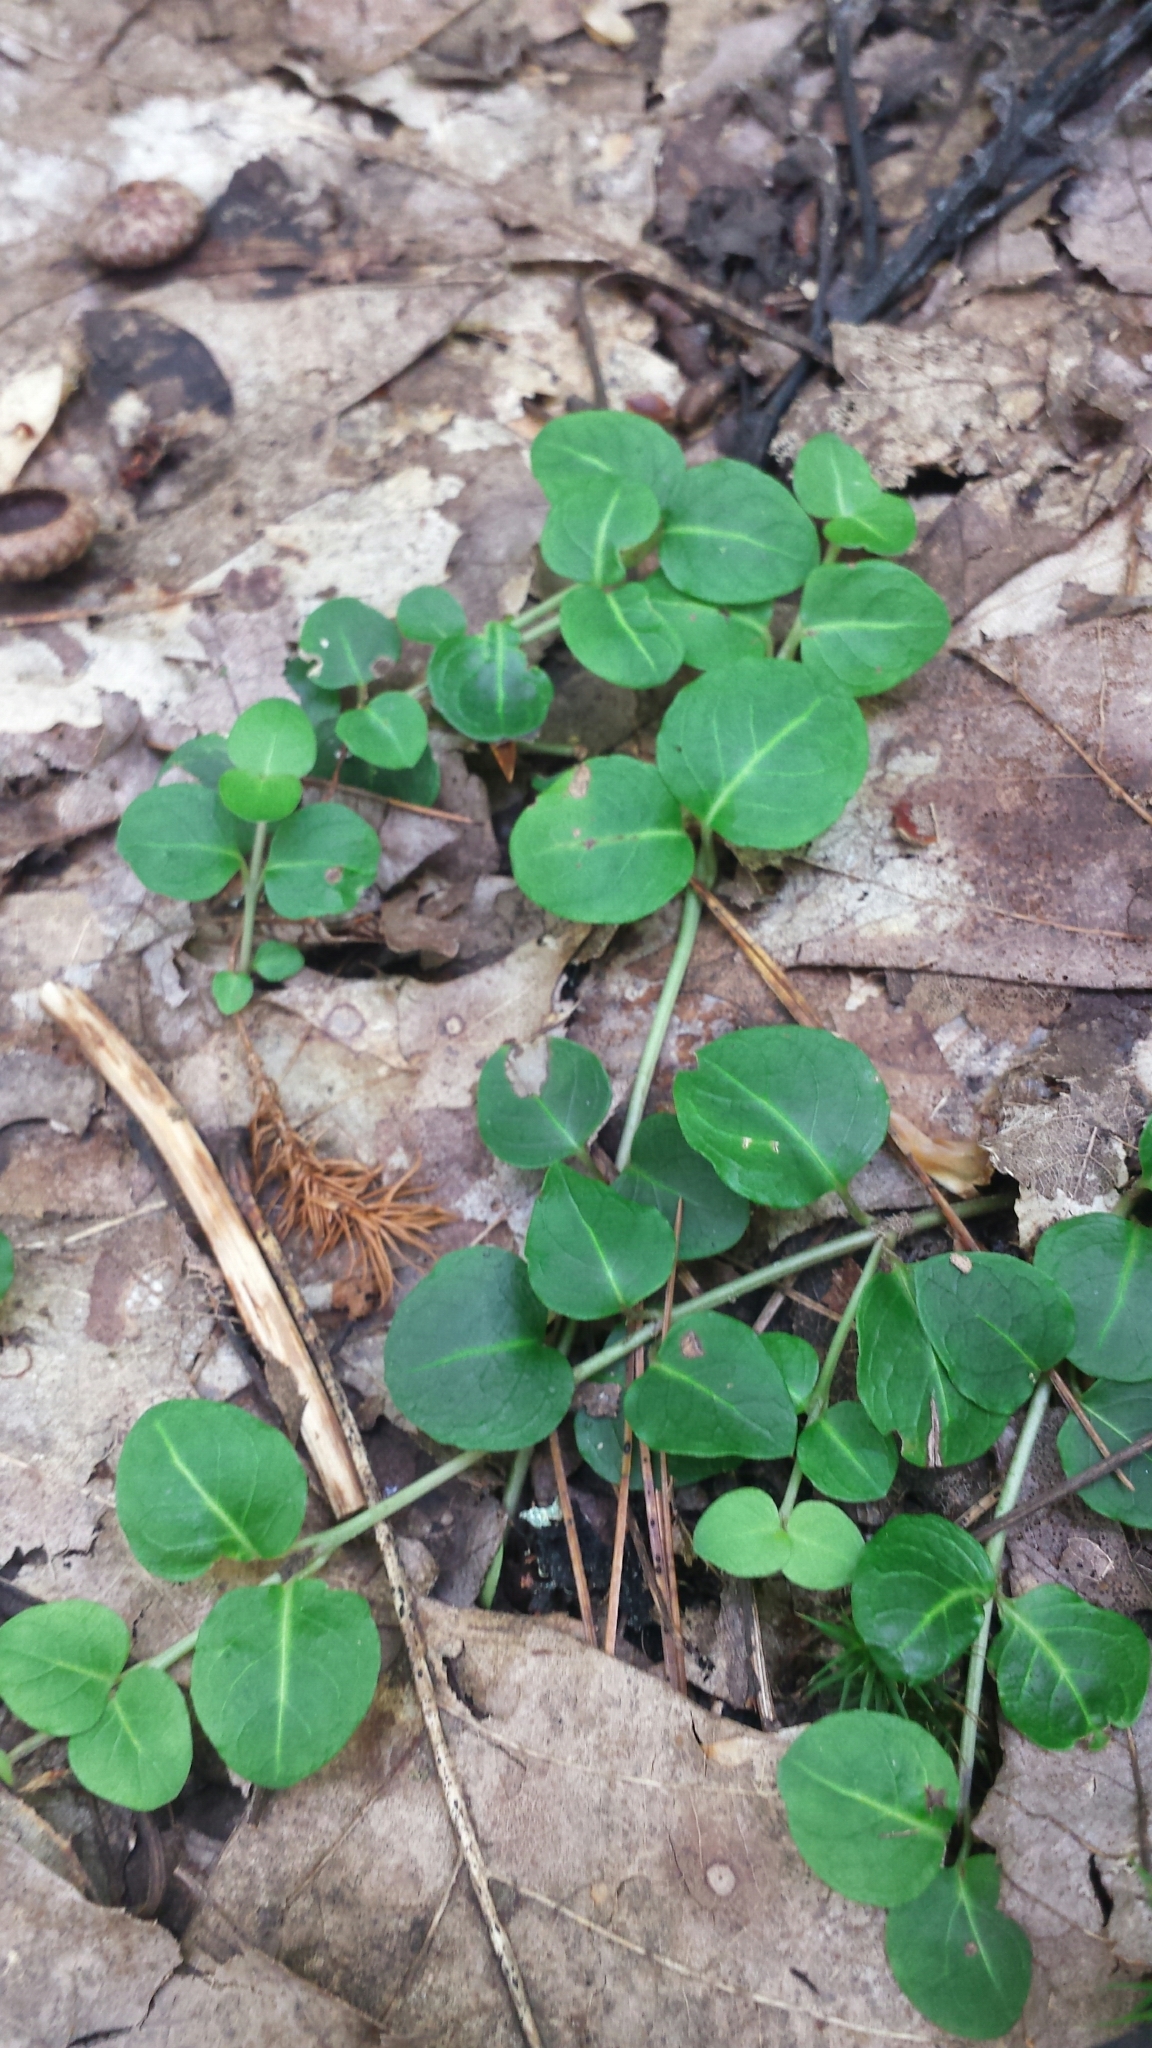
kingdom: Plantae
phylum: Tracheophyta
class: Magnoliopsida
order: Gentianales
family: Rubiaceae
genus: Mitchella
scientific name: Mitchella repens
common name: Partridge-berry
